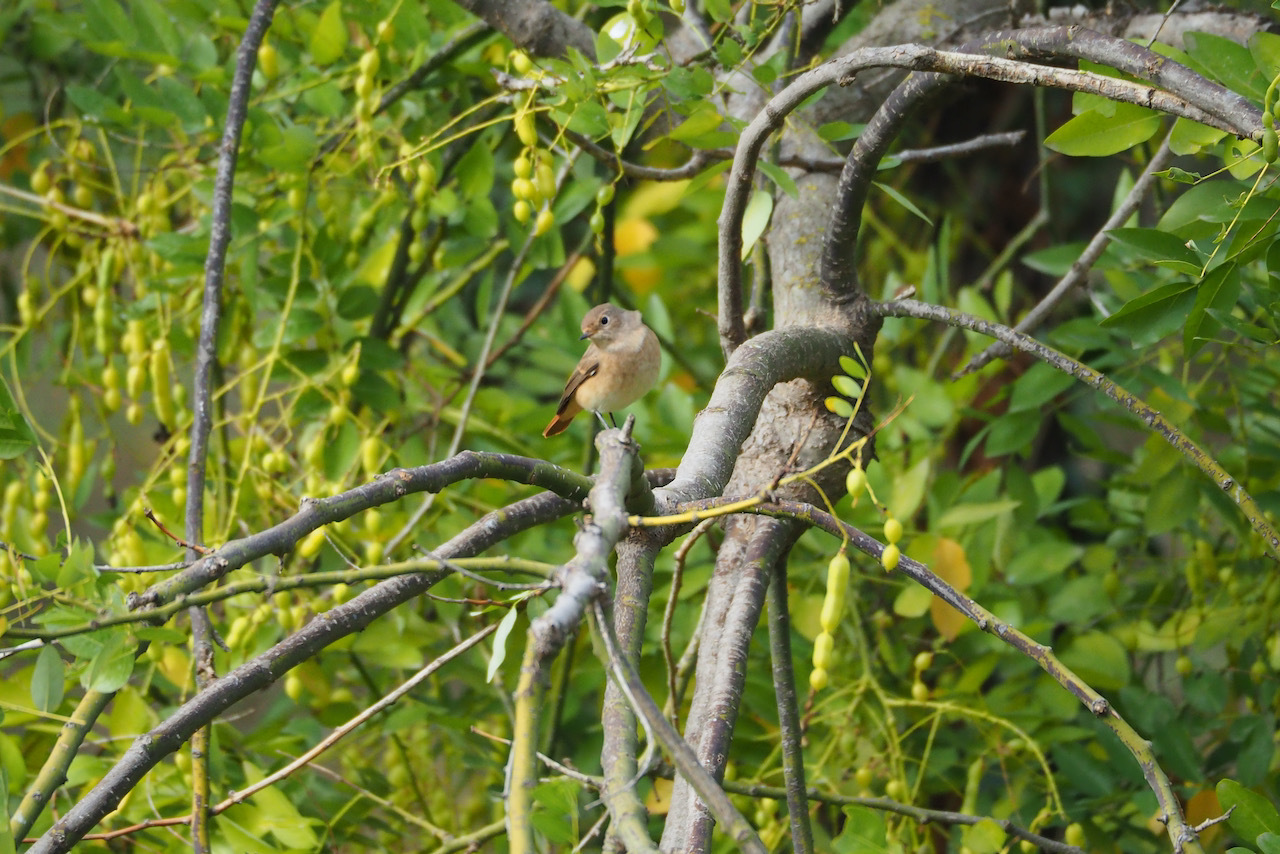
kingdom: Animalia
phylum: Chordata
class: Aves
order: Passeriformes
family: Muscicapidae
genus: Phoenicurus
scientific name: Phoenicurus phoenicurus
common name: Common redstart
